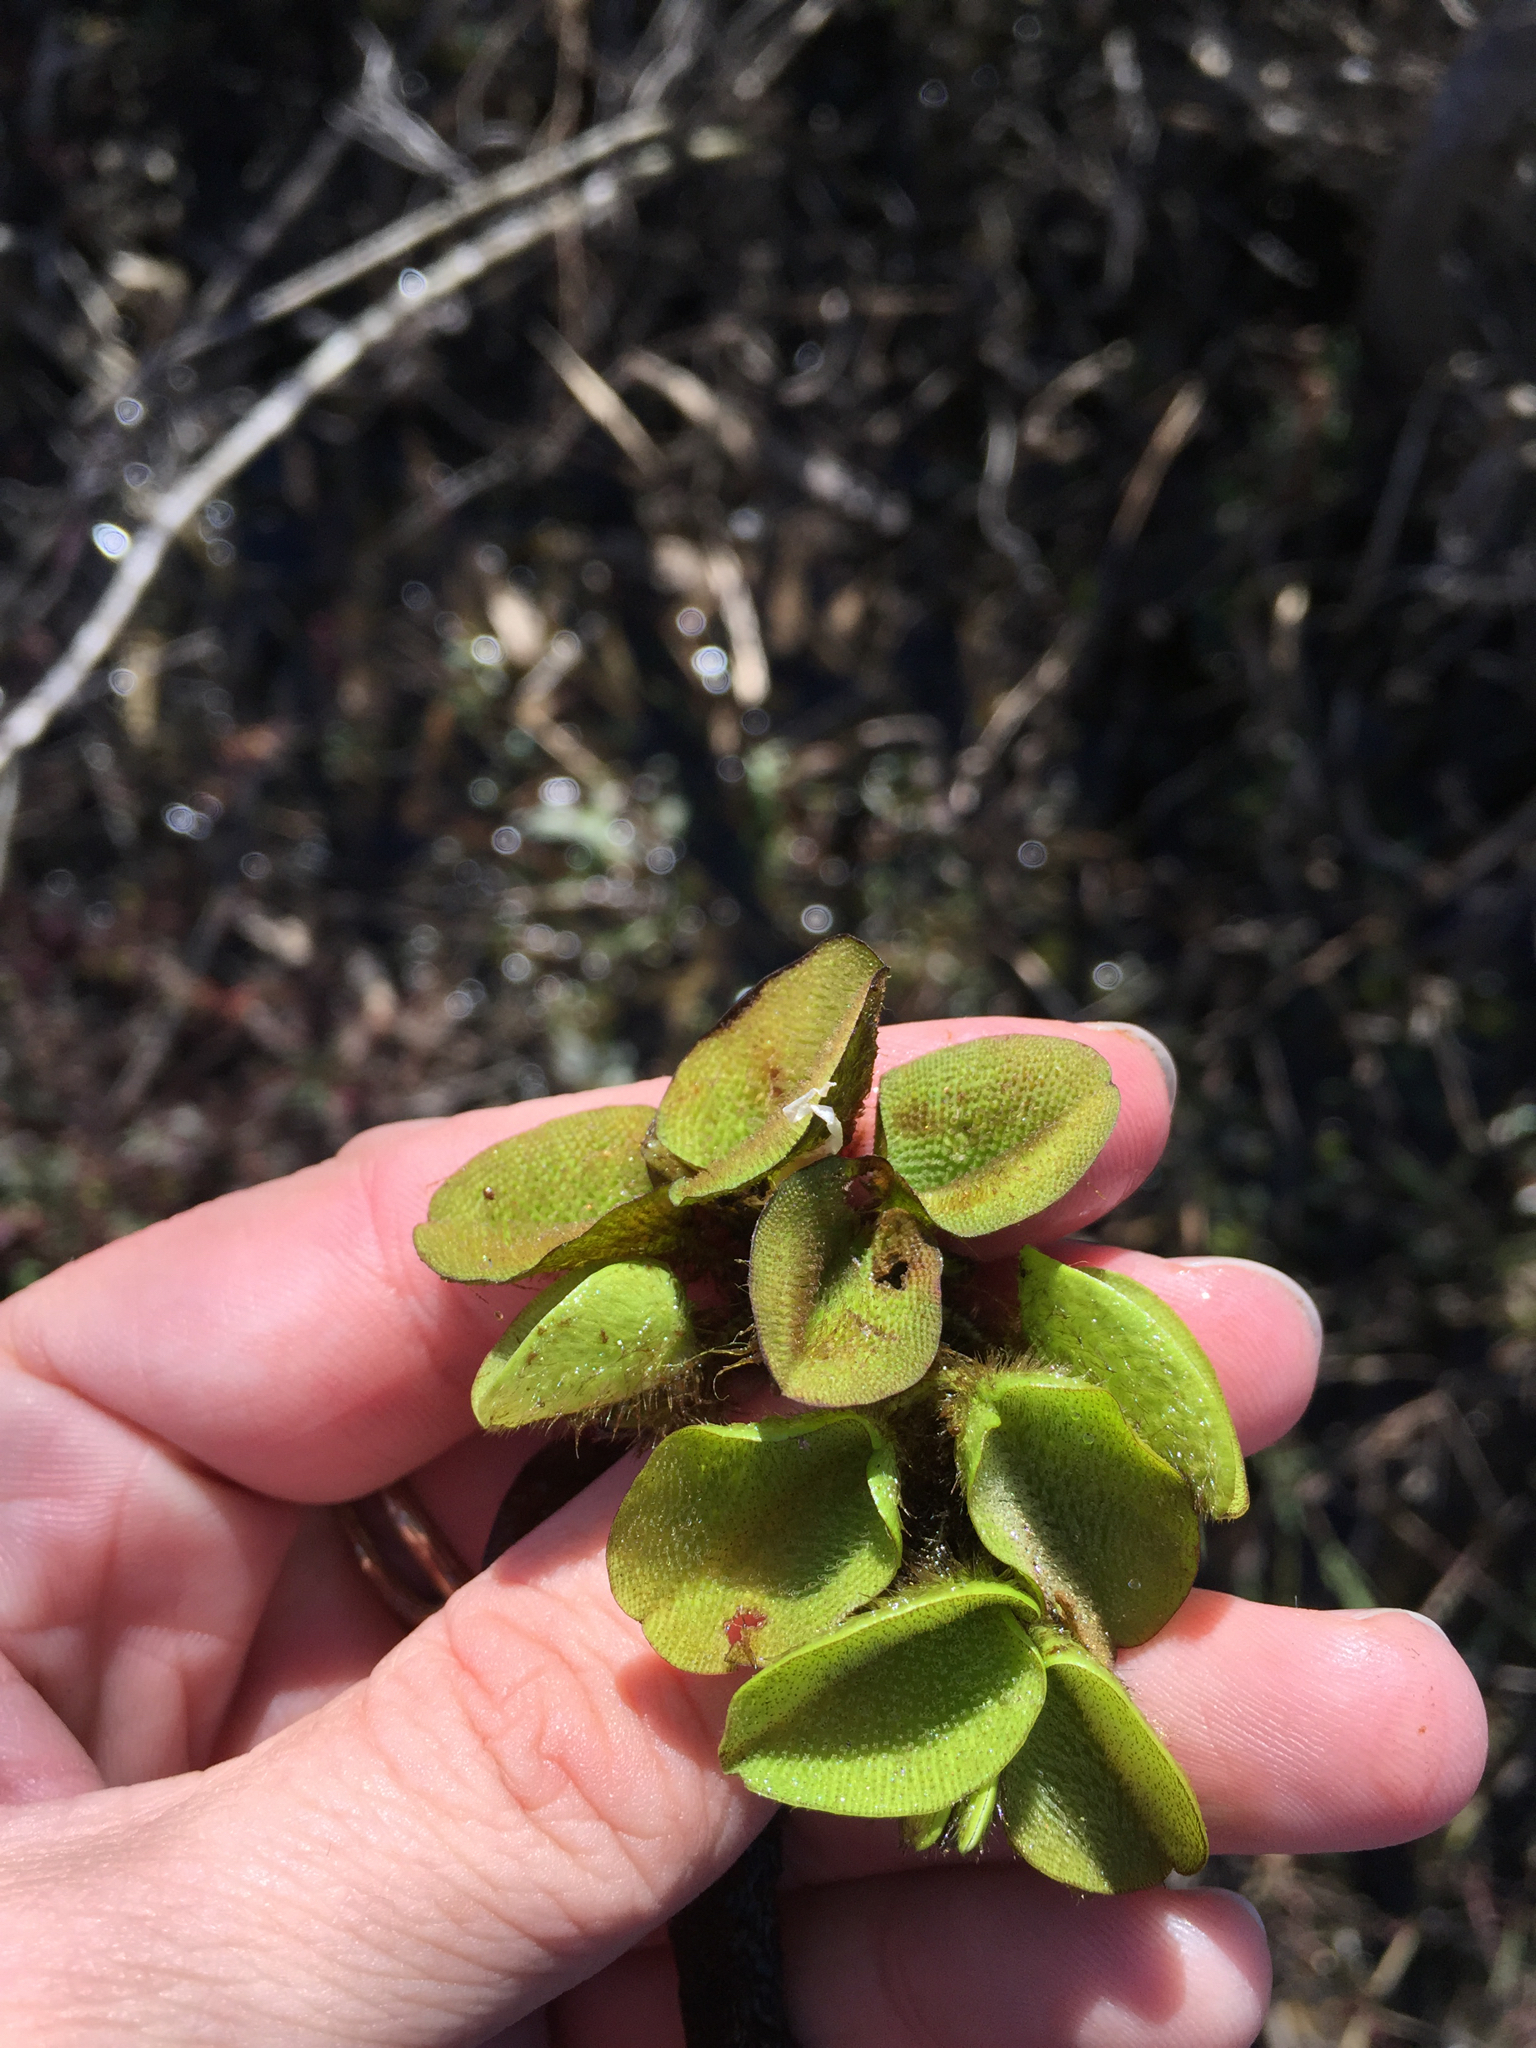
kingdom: Plantae
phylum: Tracheophyta
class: Polypodiopsida
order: Salviniales
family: Salviniaceae
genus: Salvinia
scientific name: Salvinia molesta
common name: Kariba weed
